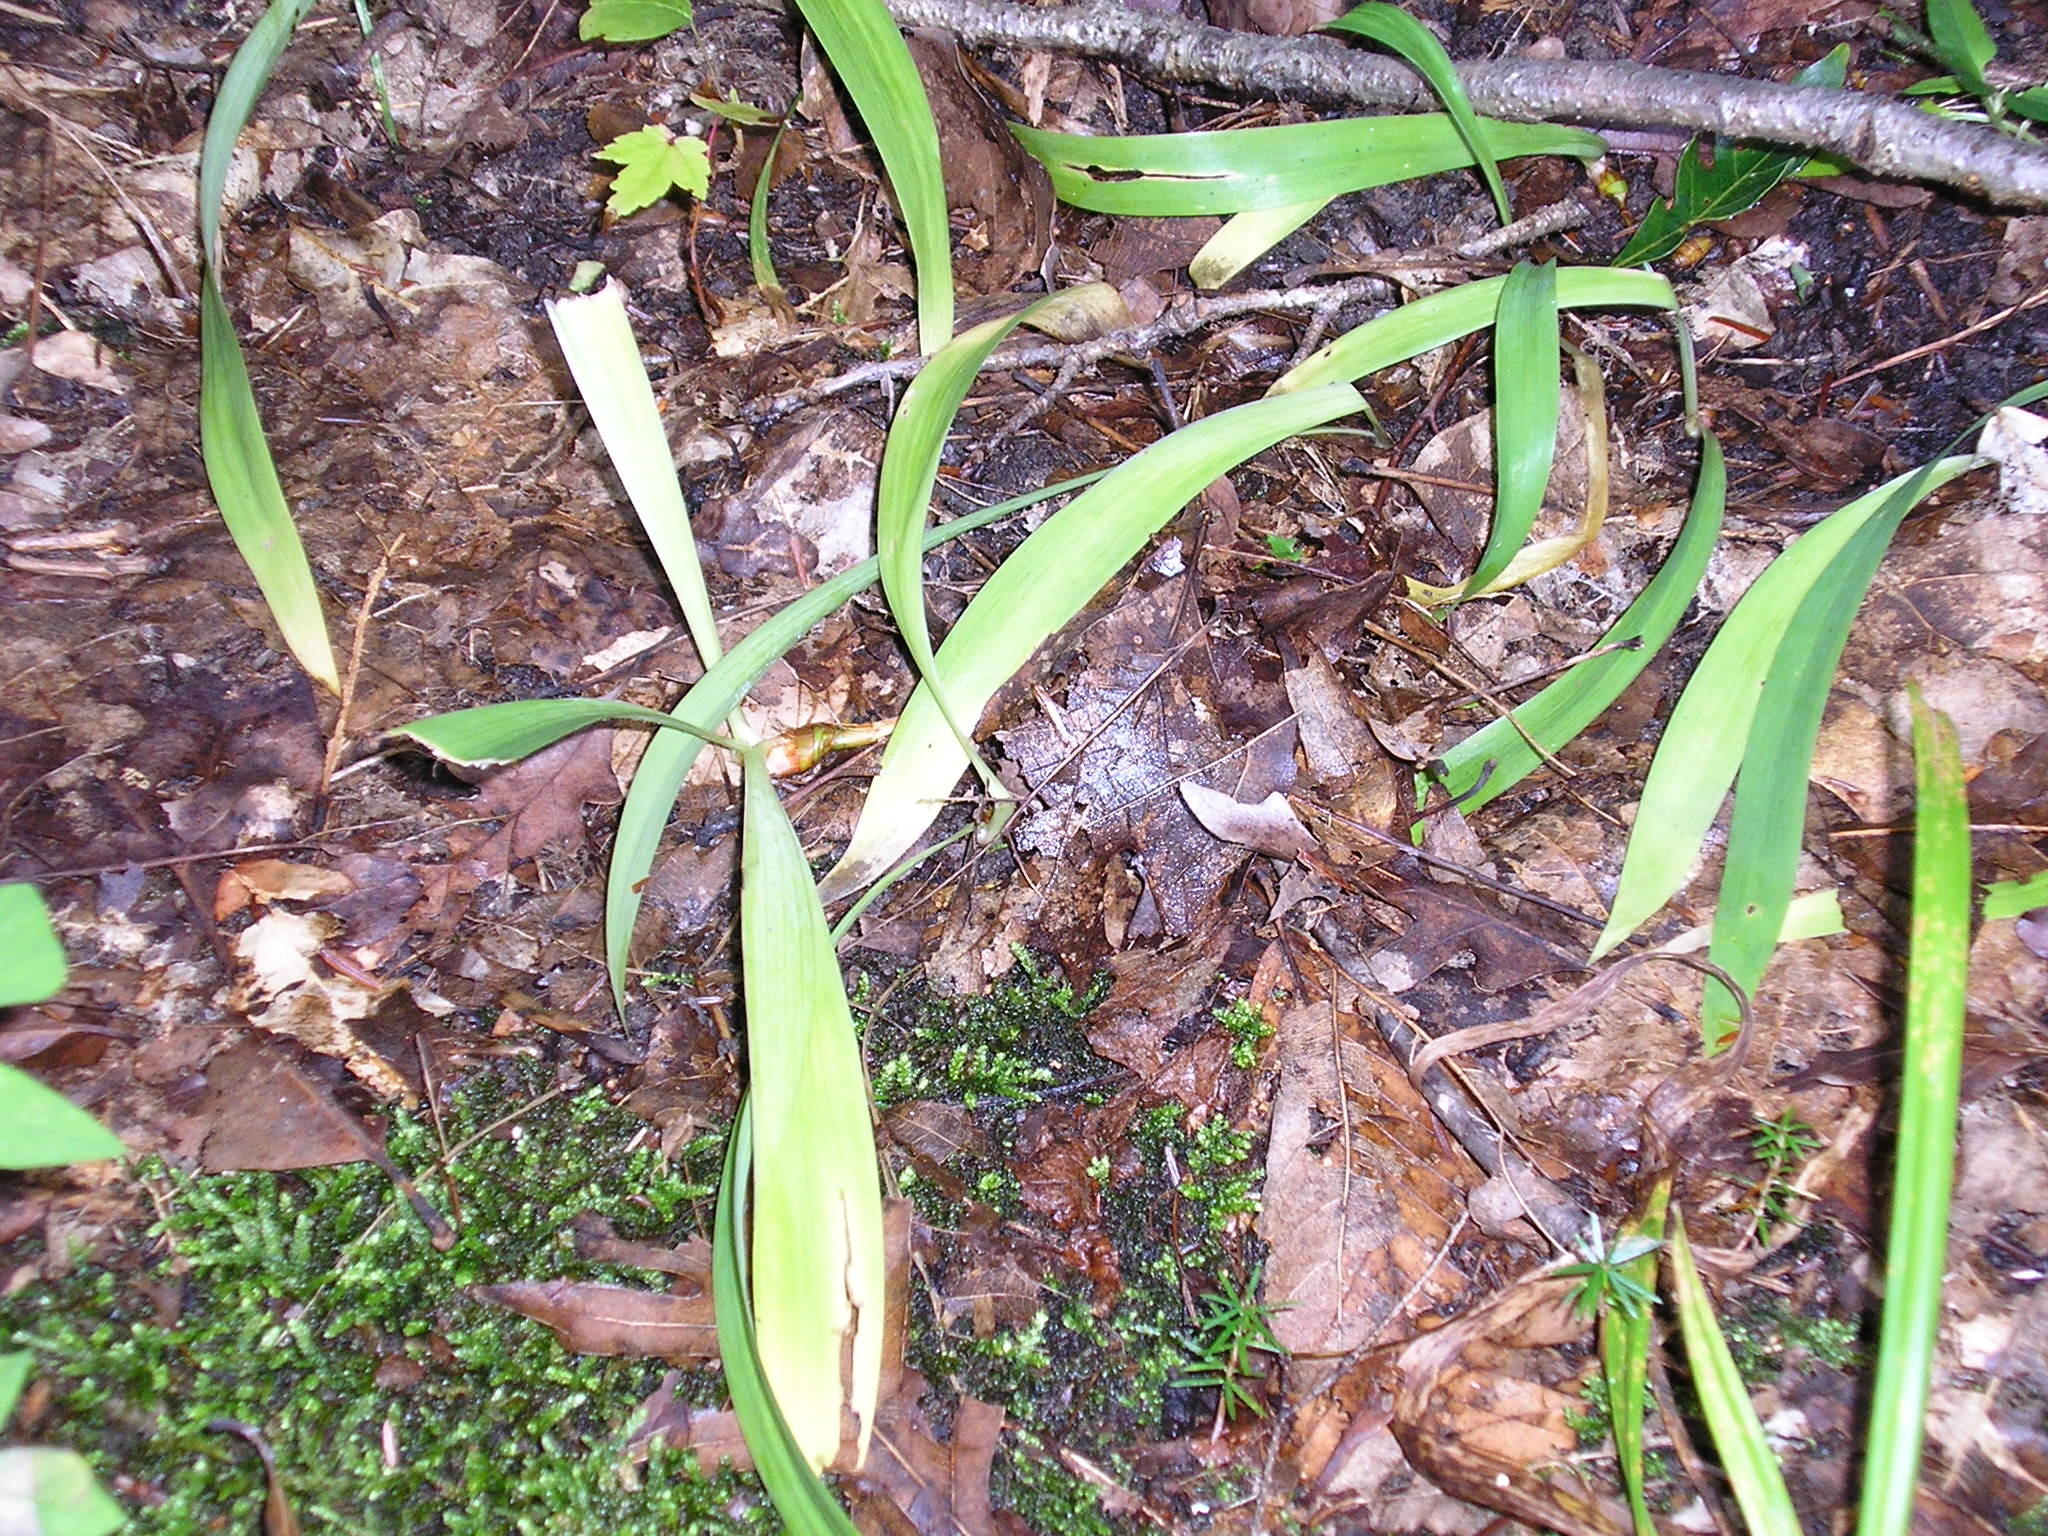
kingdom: Plantae
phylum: Tracheophyta
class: Liliopsida
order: Asparagales
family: Iridaceae
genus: Iris
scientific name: Iris cristata
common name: Crested iris
